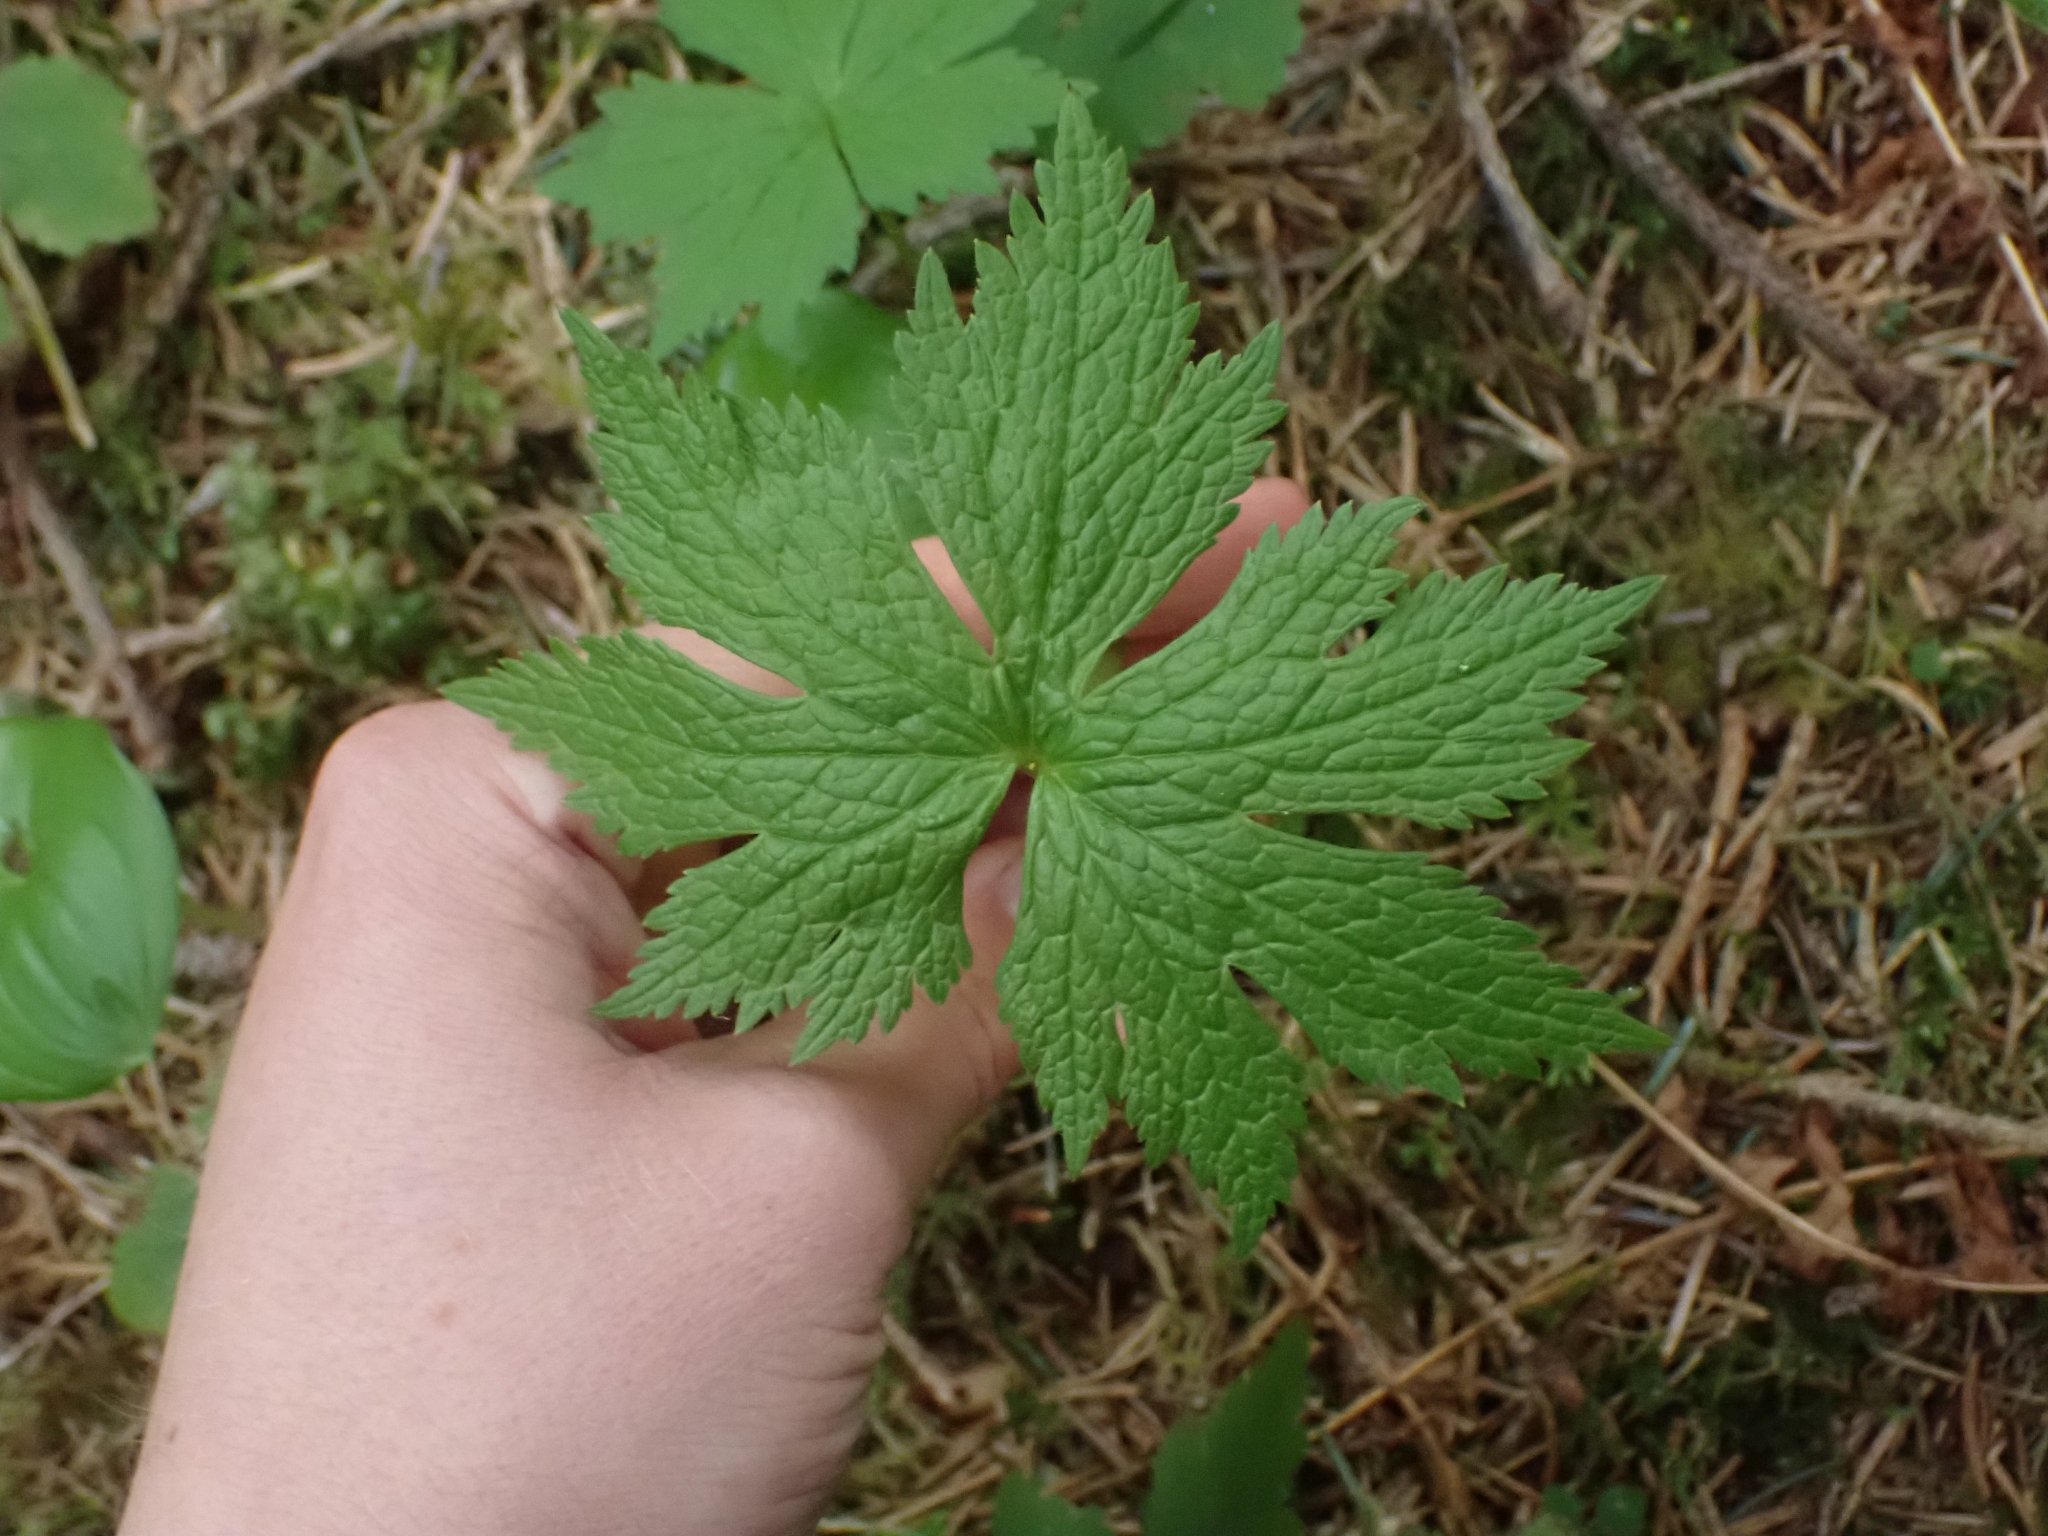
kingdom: Plantae
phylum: Tracheophyta
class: Magnoliopsida
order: Ranunculales
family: Ranunculaceae
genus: Trautvetteria
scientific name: Trautvetteria carolinensis
